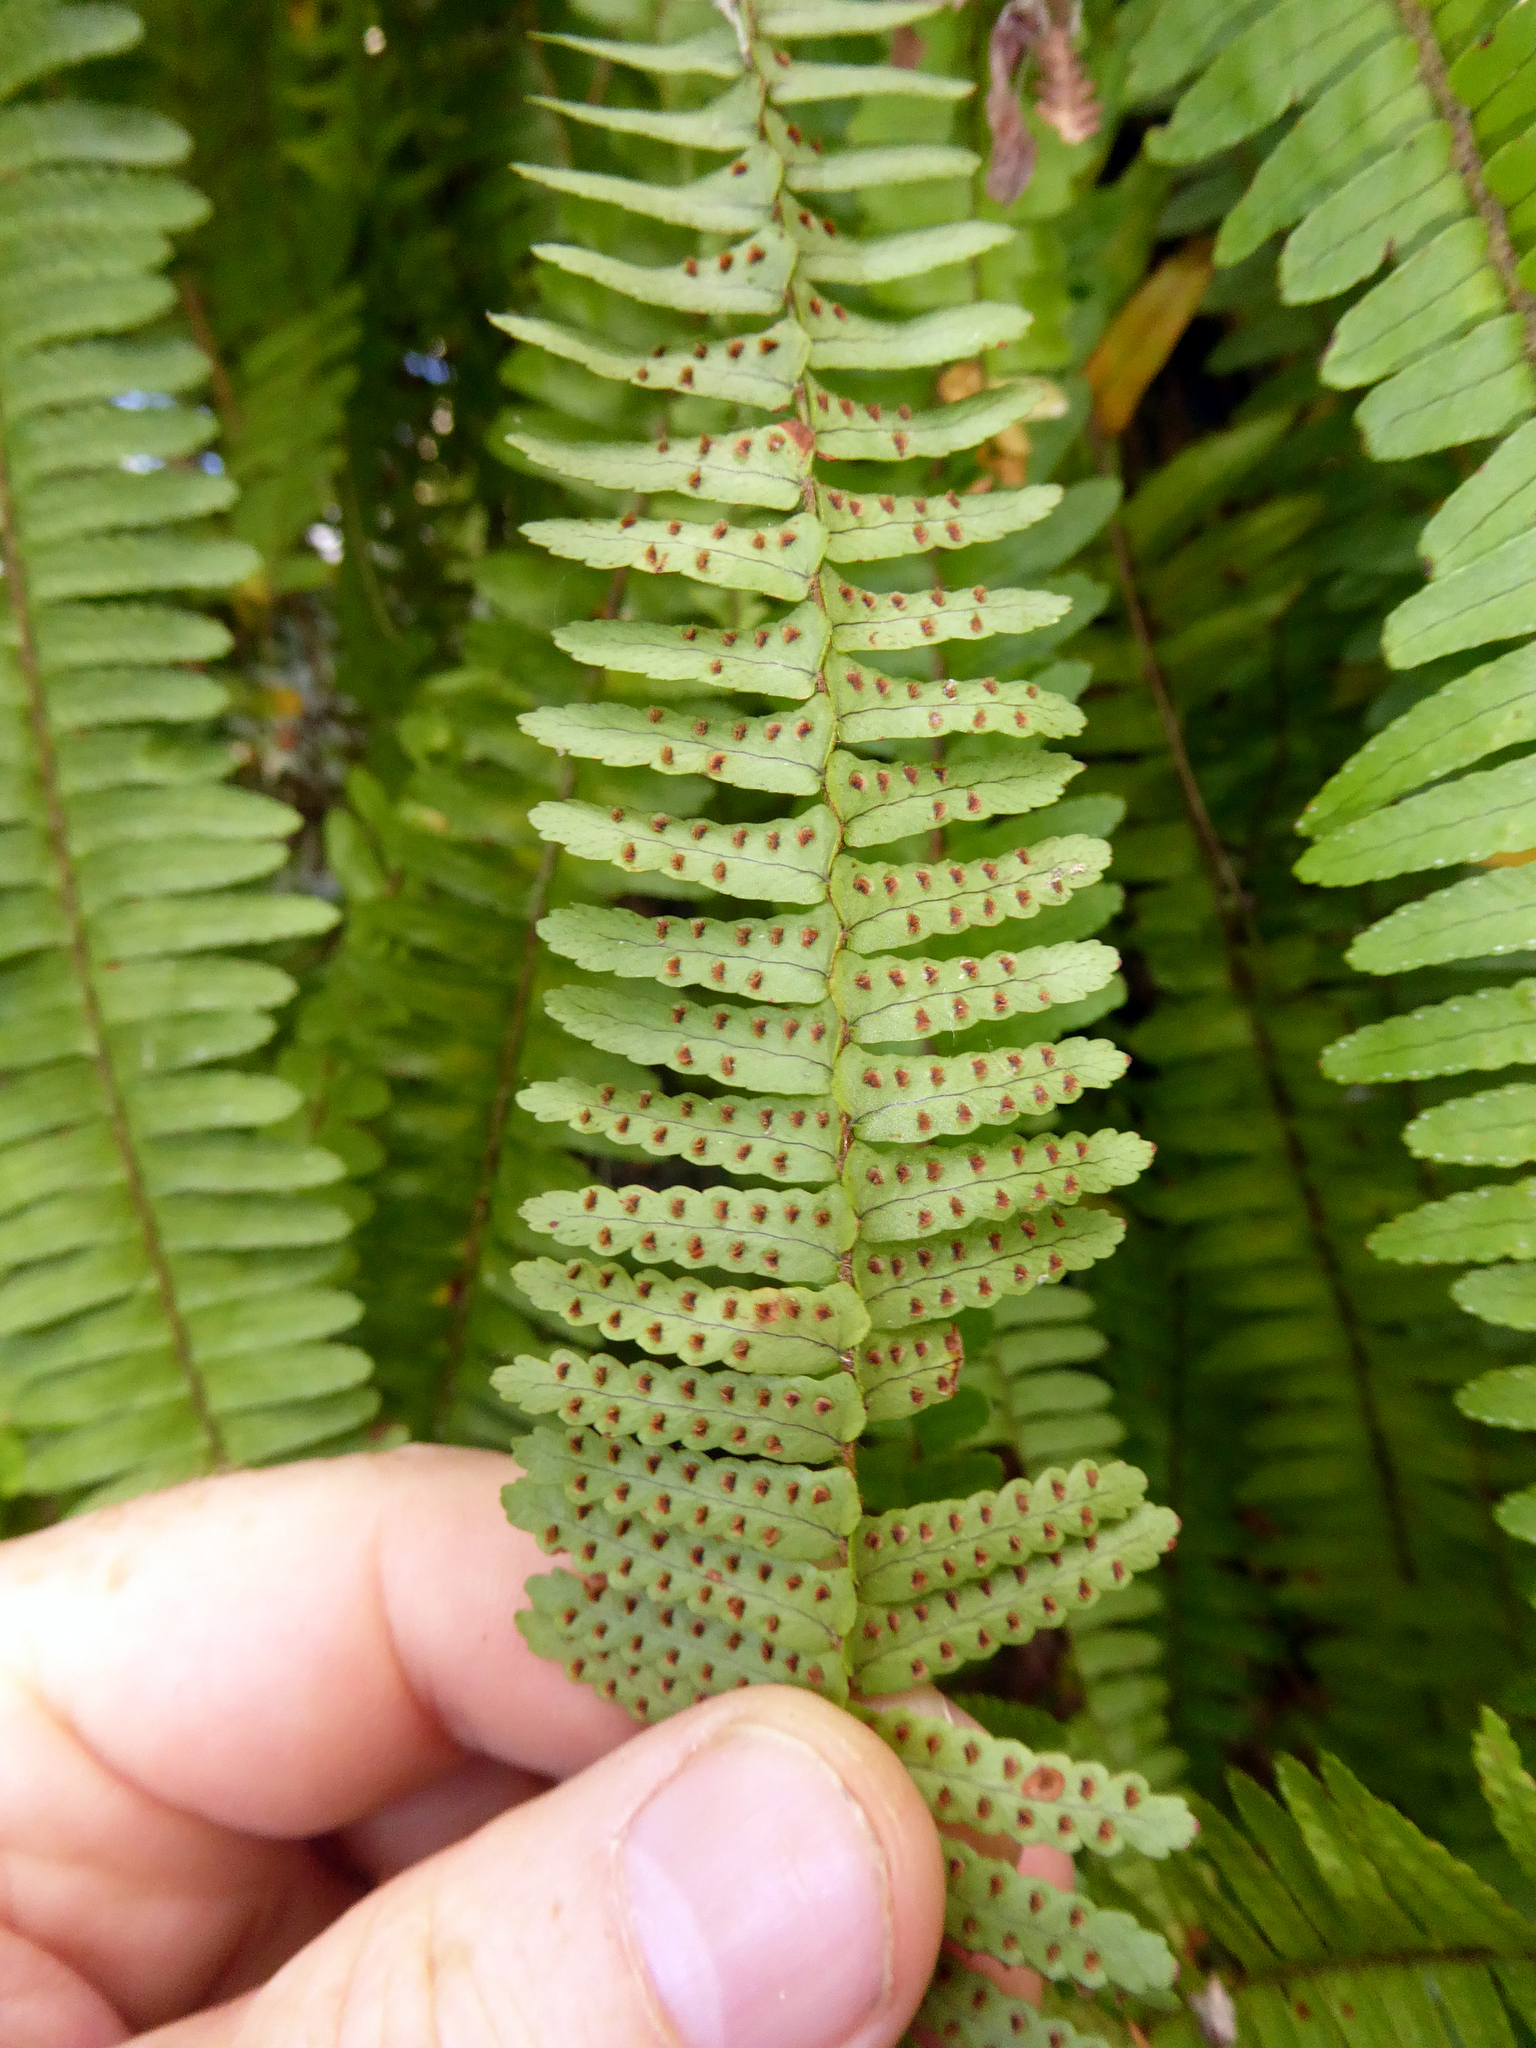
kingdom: Plantae
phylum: Tracheophyta
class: Polypodiopsida
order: Polypodiales
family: Nephrolepidaceae
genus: Nephrolepis
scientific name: Nephrolepis cordifolia
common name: Narrow swordfern
